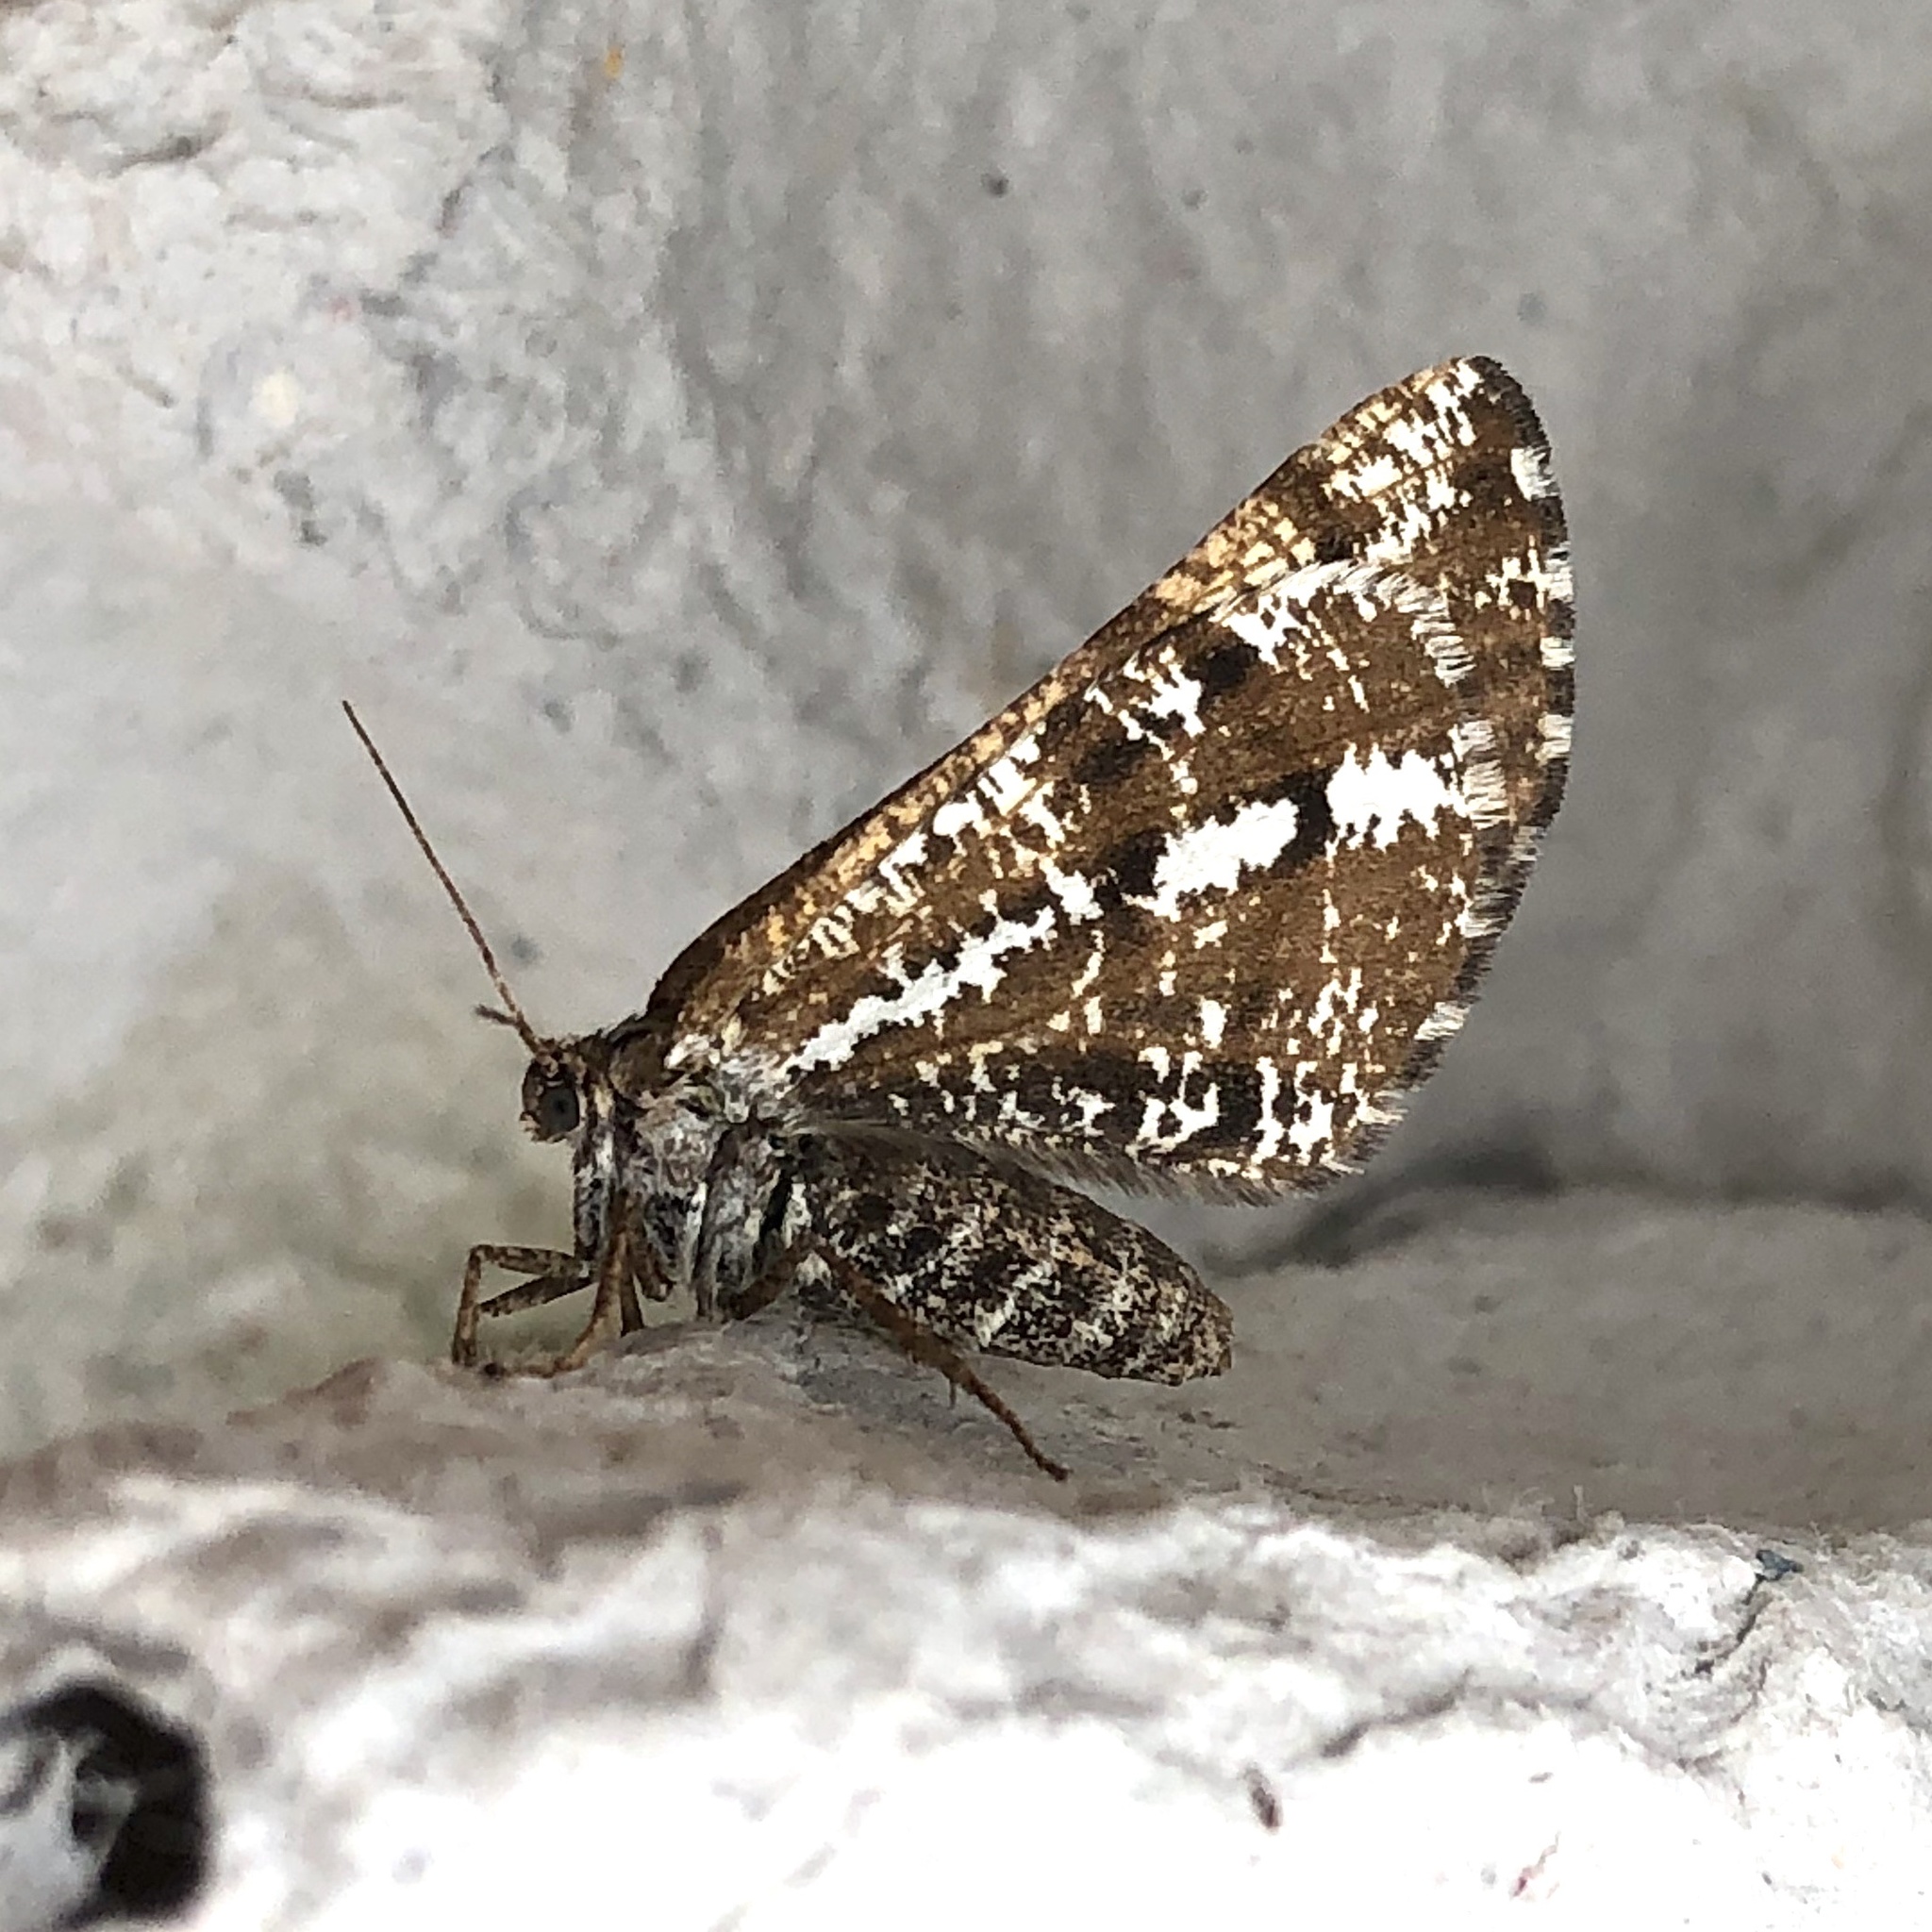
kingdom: Animalia
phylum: Arthropoda
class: Insecta
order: Lepidoptera
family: Geometridae
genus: Bupalus
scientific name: Bupalus piniaria
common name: Bordered white
